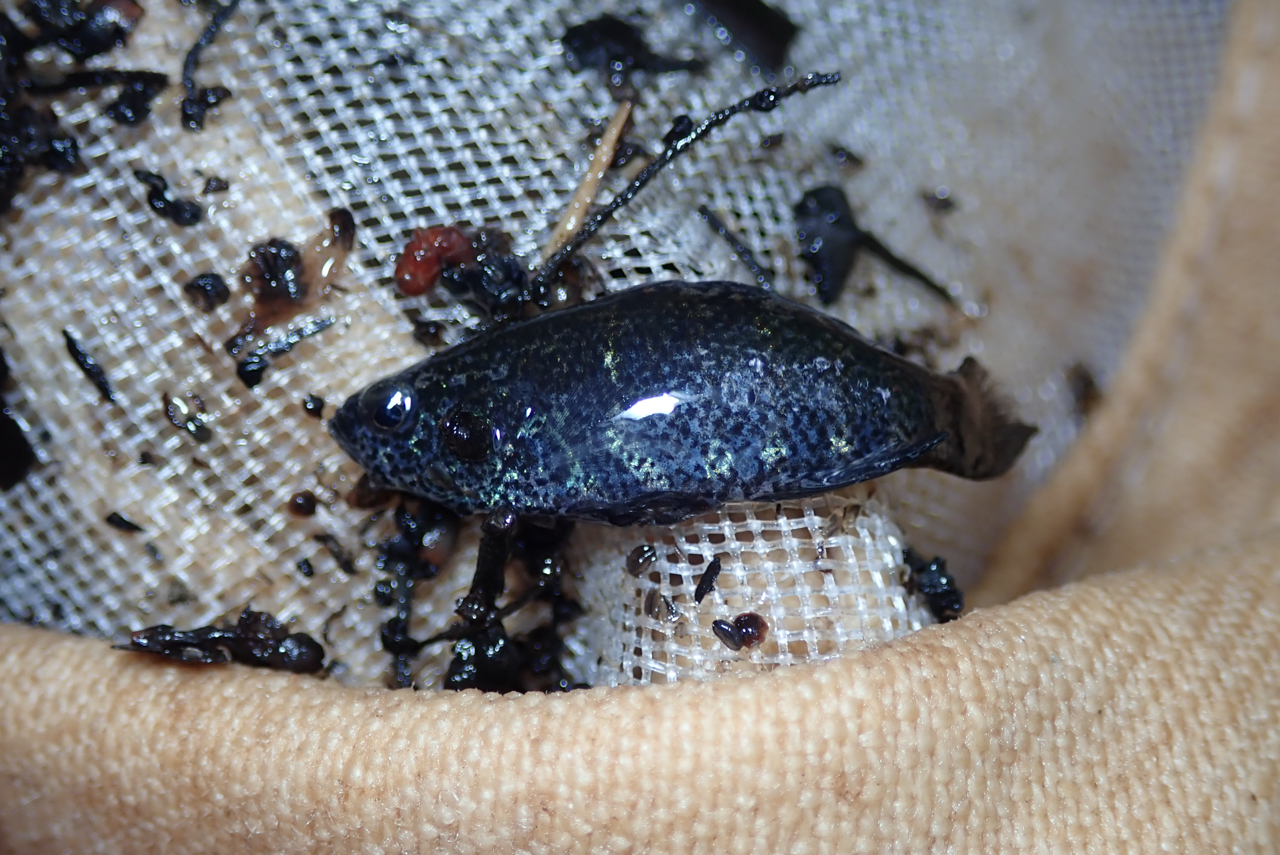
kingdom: Animalia
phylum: Chordata
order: Perciformes
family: Elassomatidae
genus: Elassoma
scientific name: Elassoma zonatum
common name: Banded pygmy sunfish
